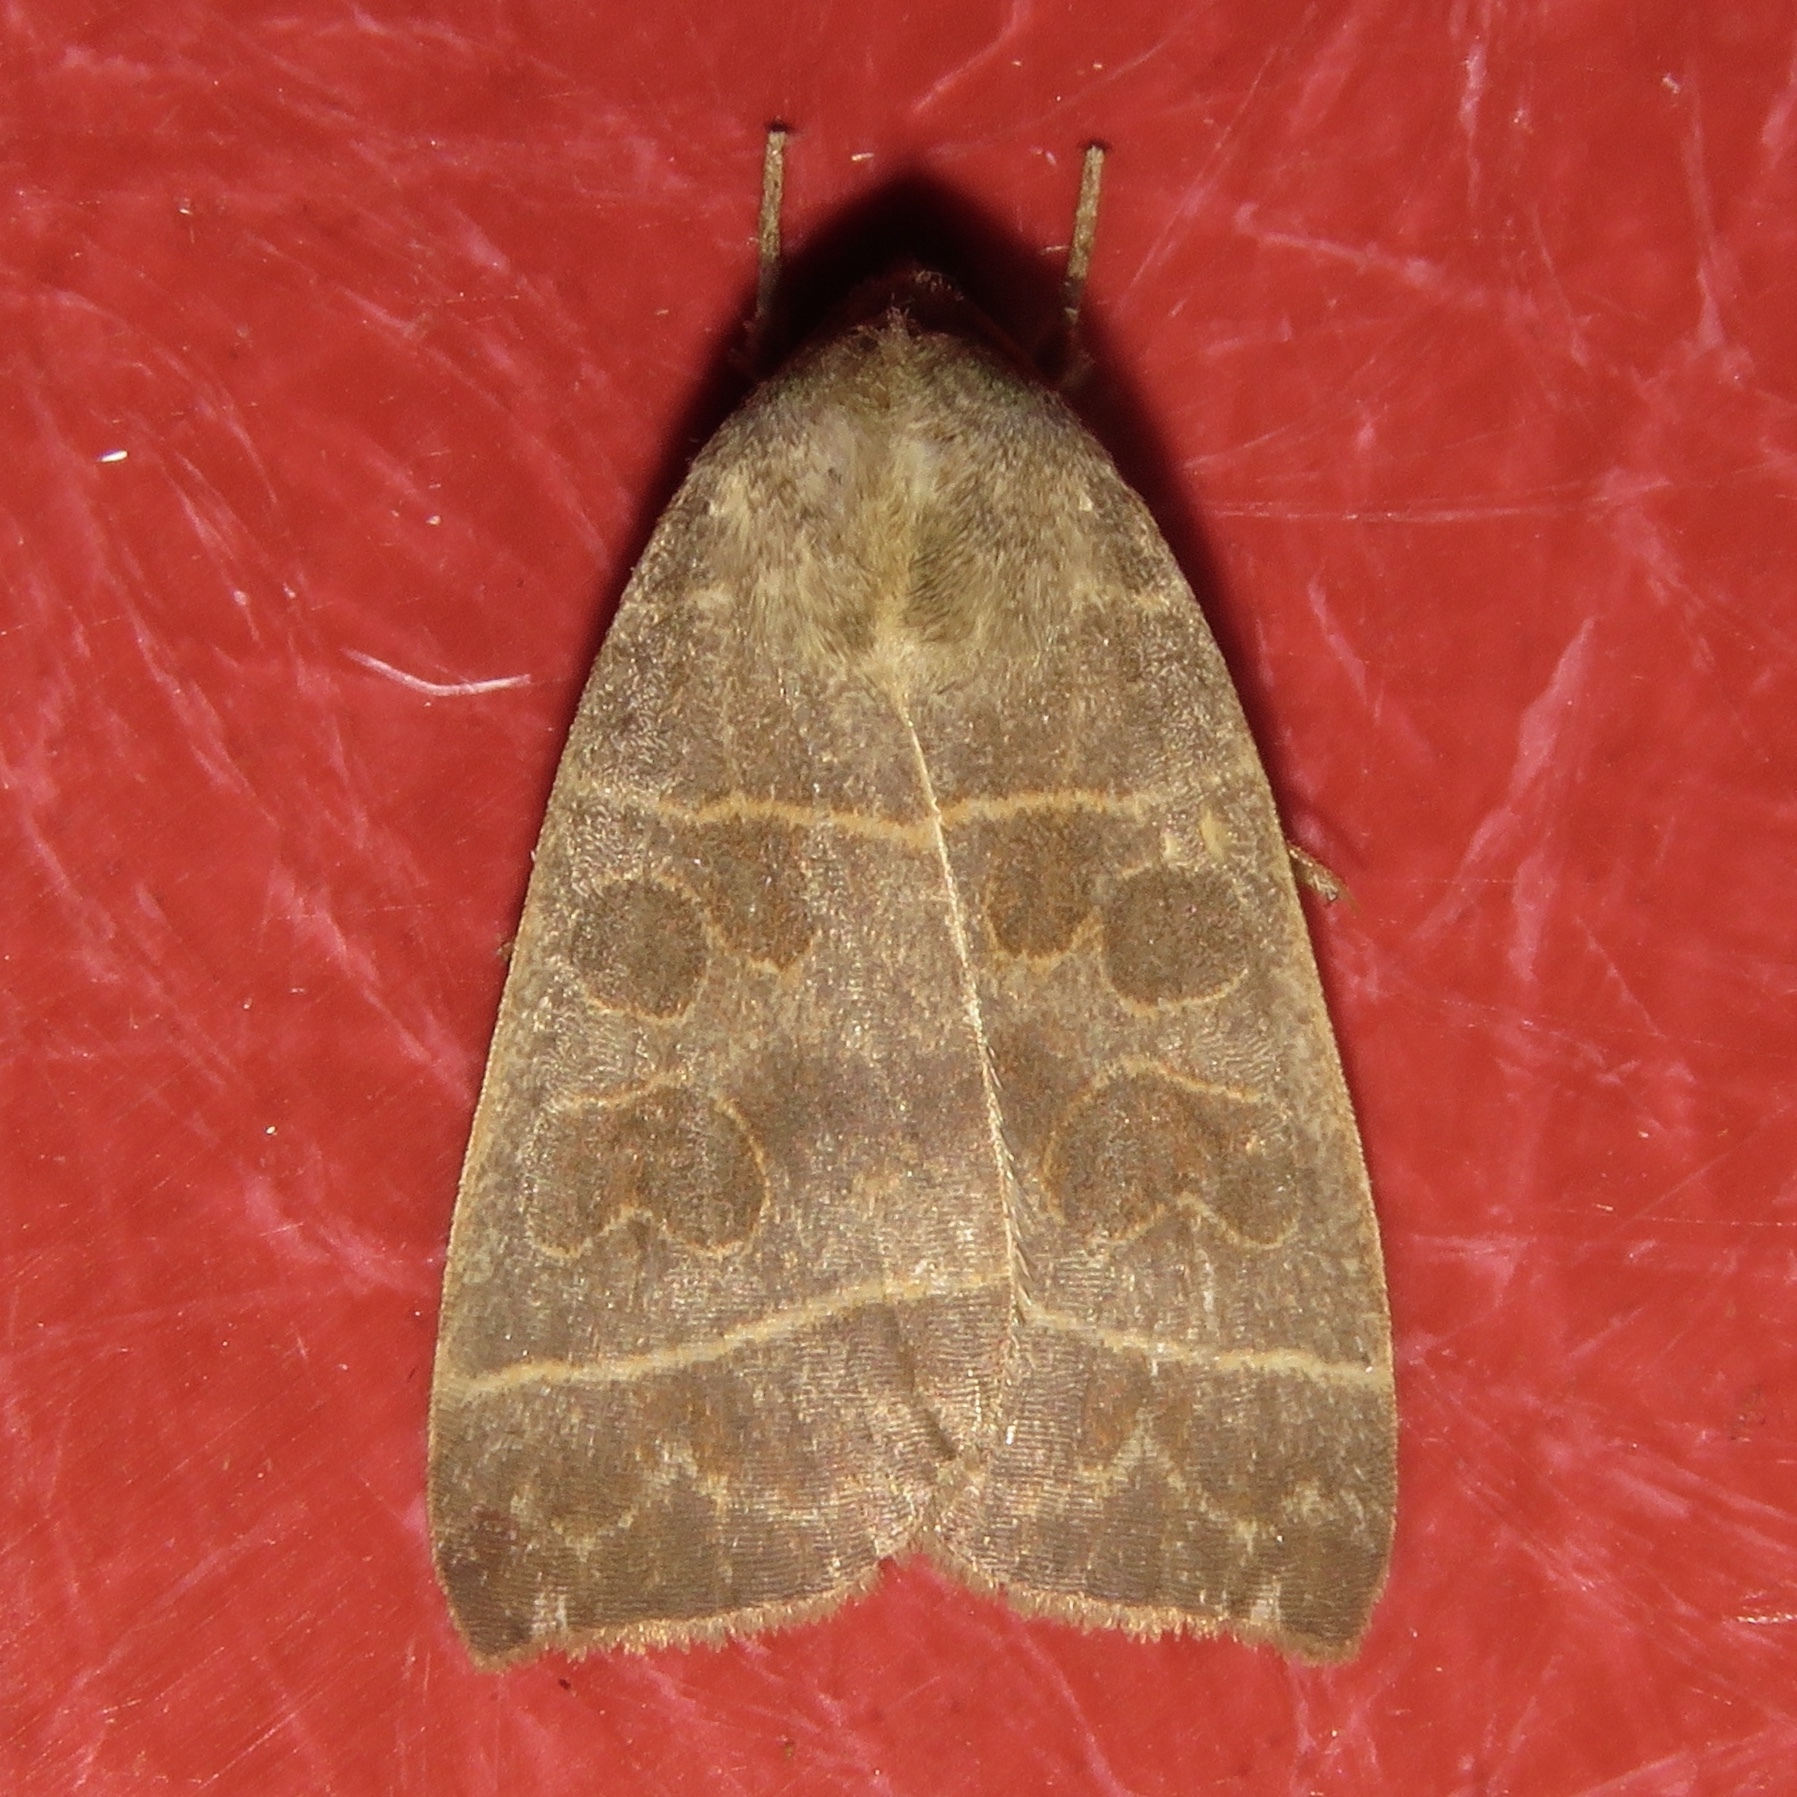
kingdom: Animalia
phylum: Arthropoda
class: Insecta
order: Lepidoptera
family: Noctuidae
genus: Ipimorpha
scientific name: Ipimorpha pleonectusa
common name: Even-lined sallow
